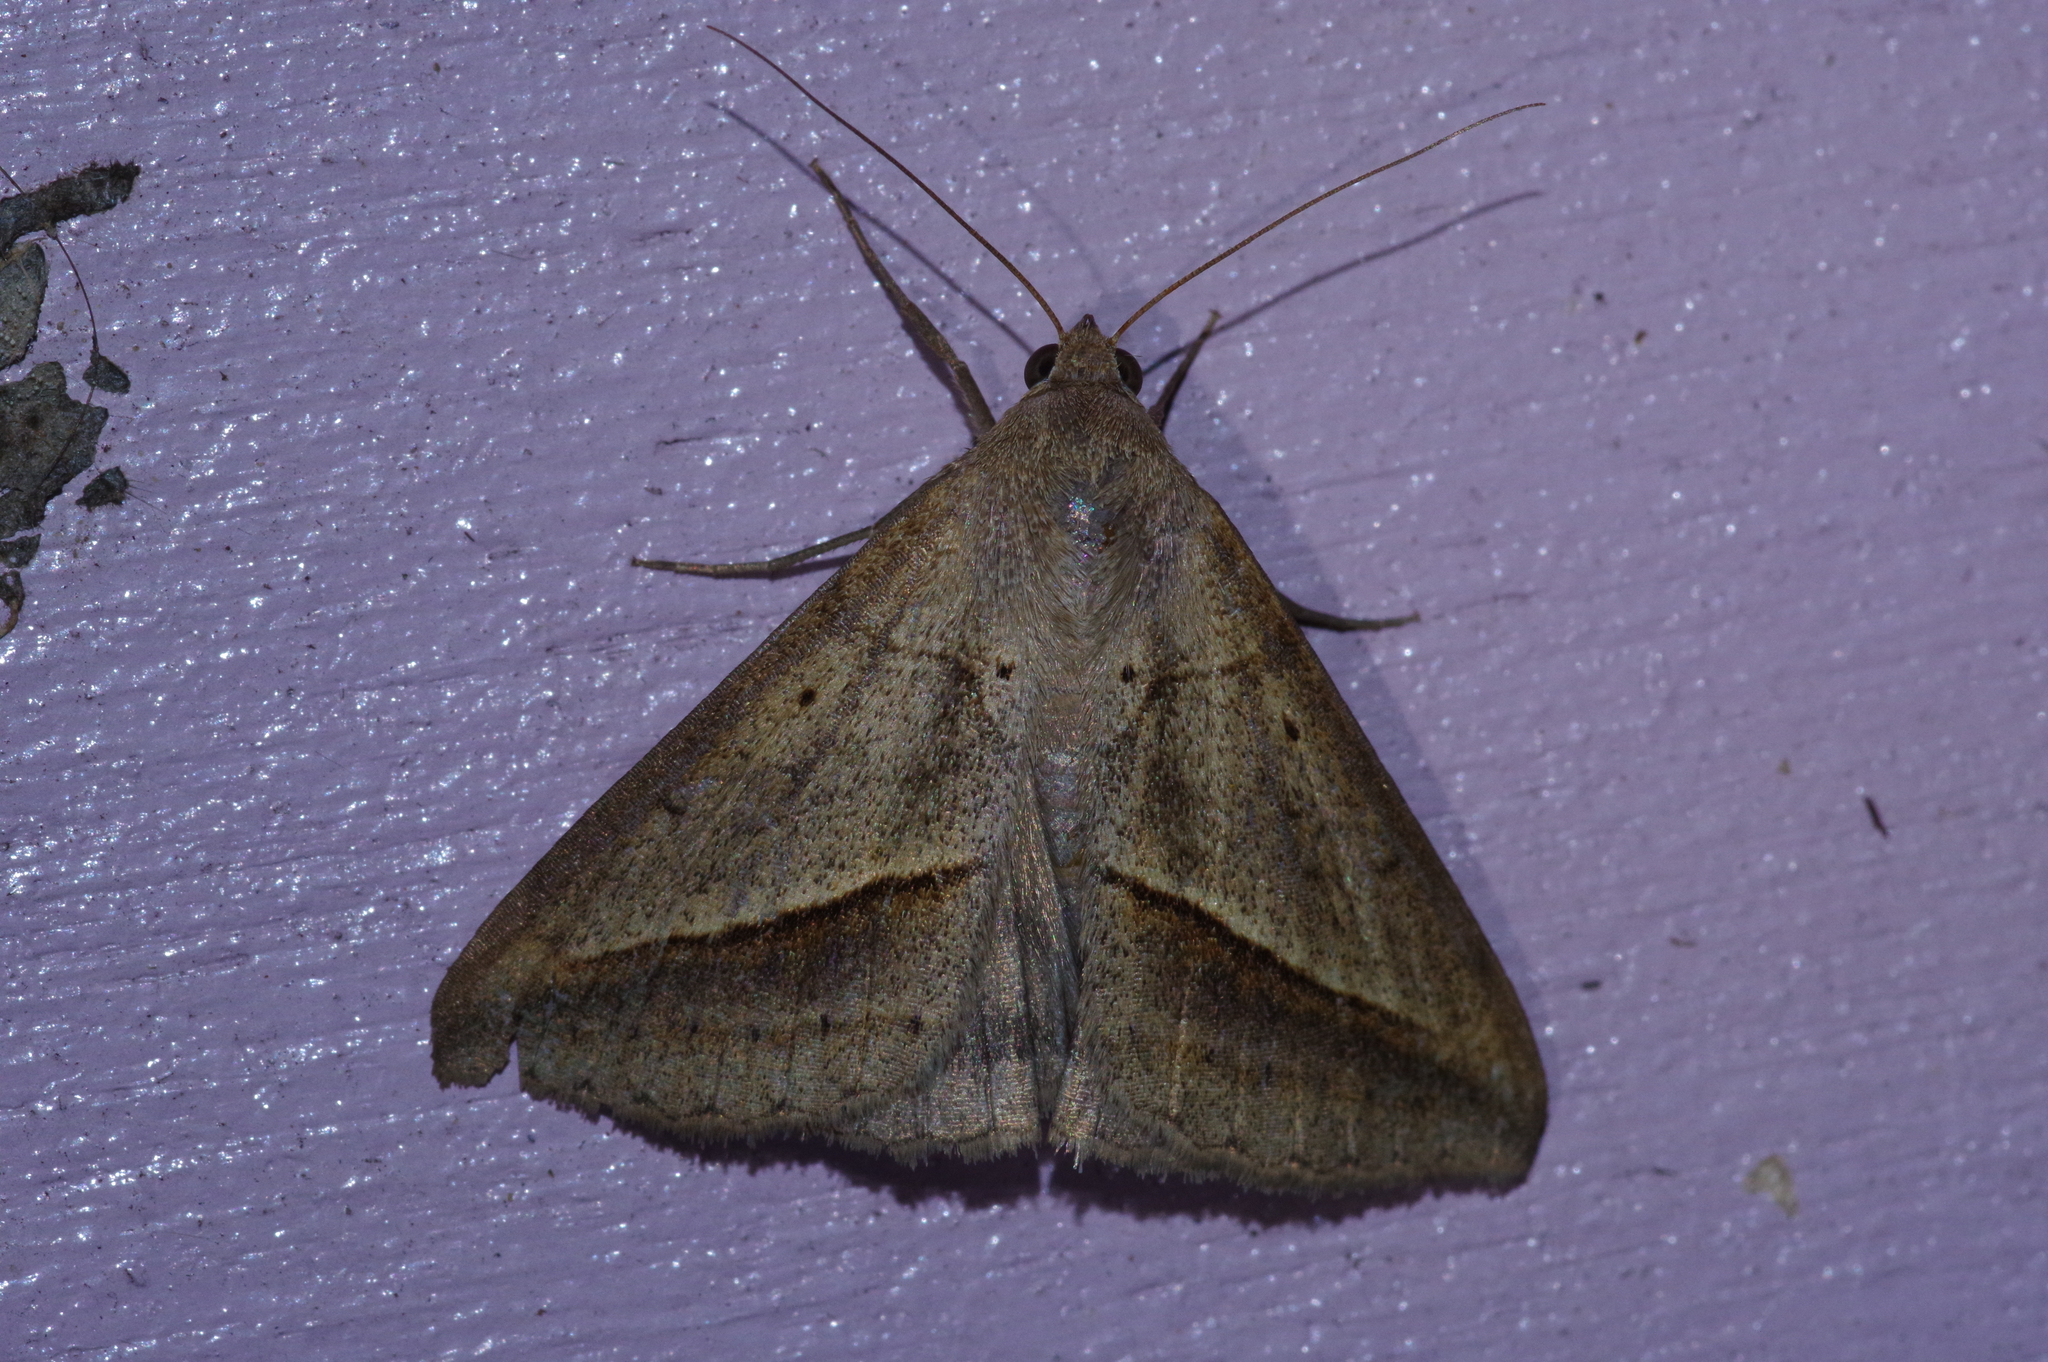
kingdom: Animalia
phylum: Arthropoda
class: Insecta
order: Lepidoptera
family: Erebidae
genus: Mocis
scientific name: Mocis frugalis
